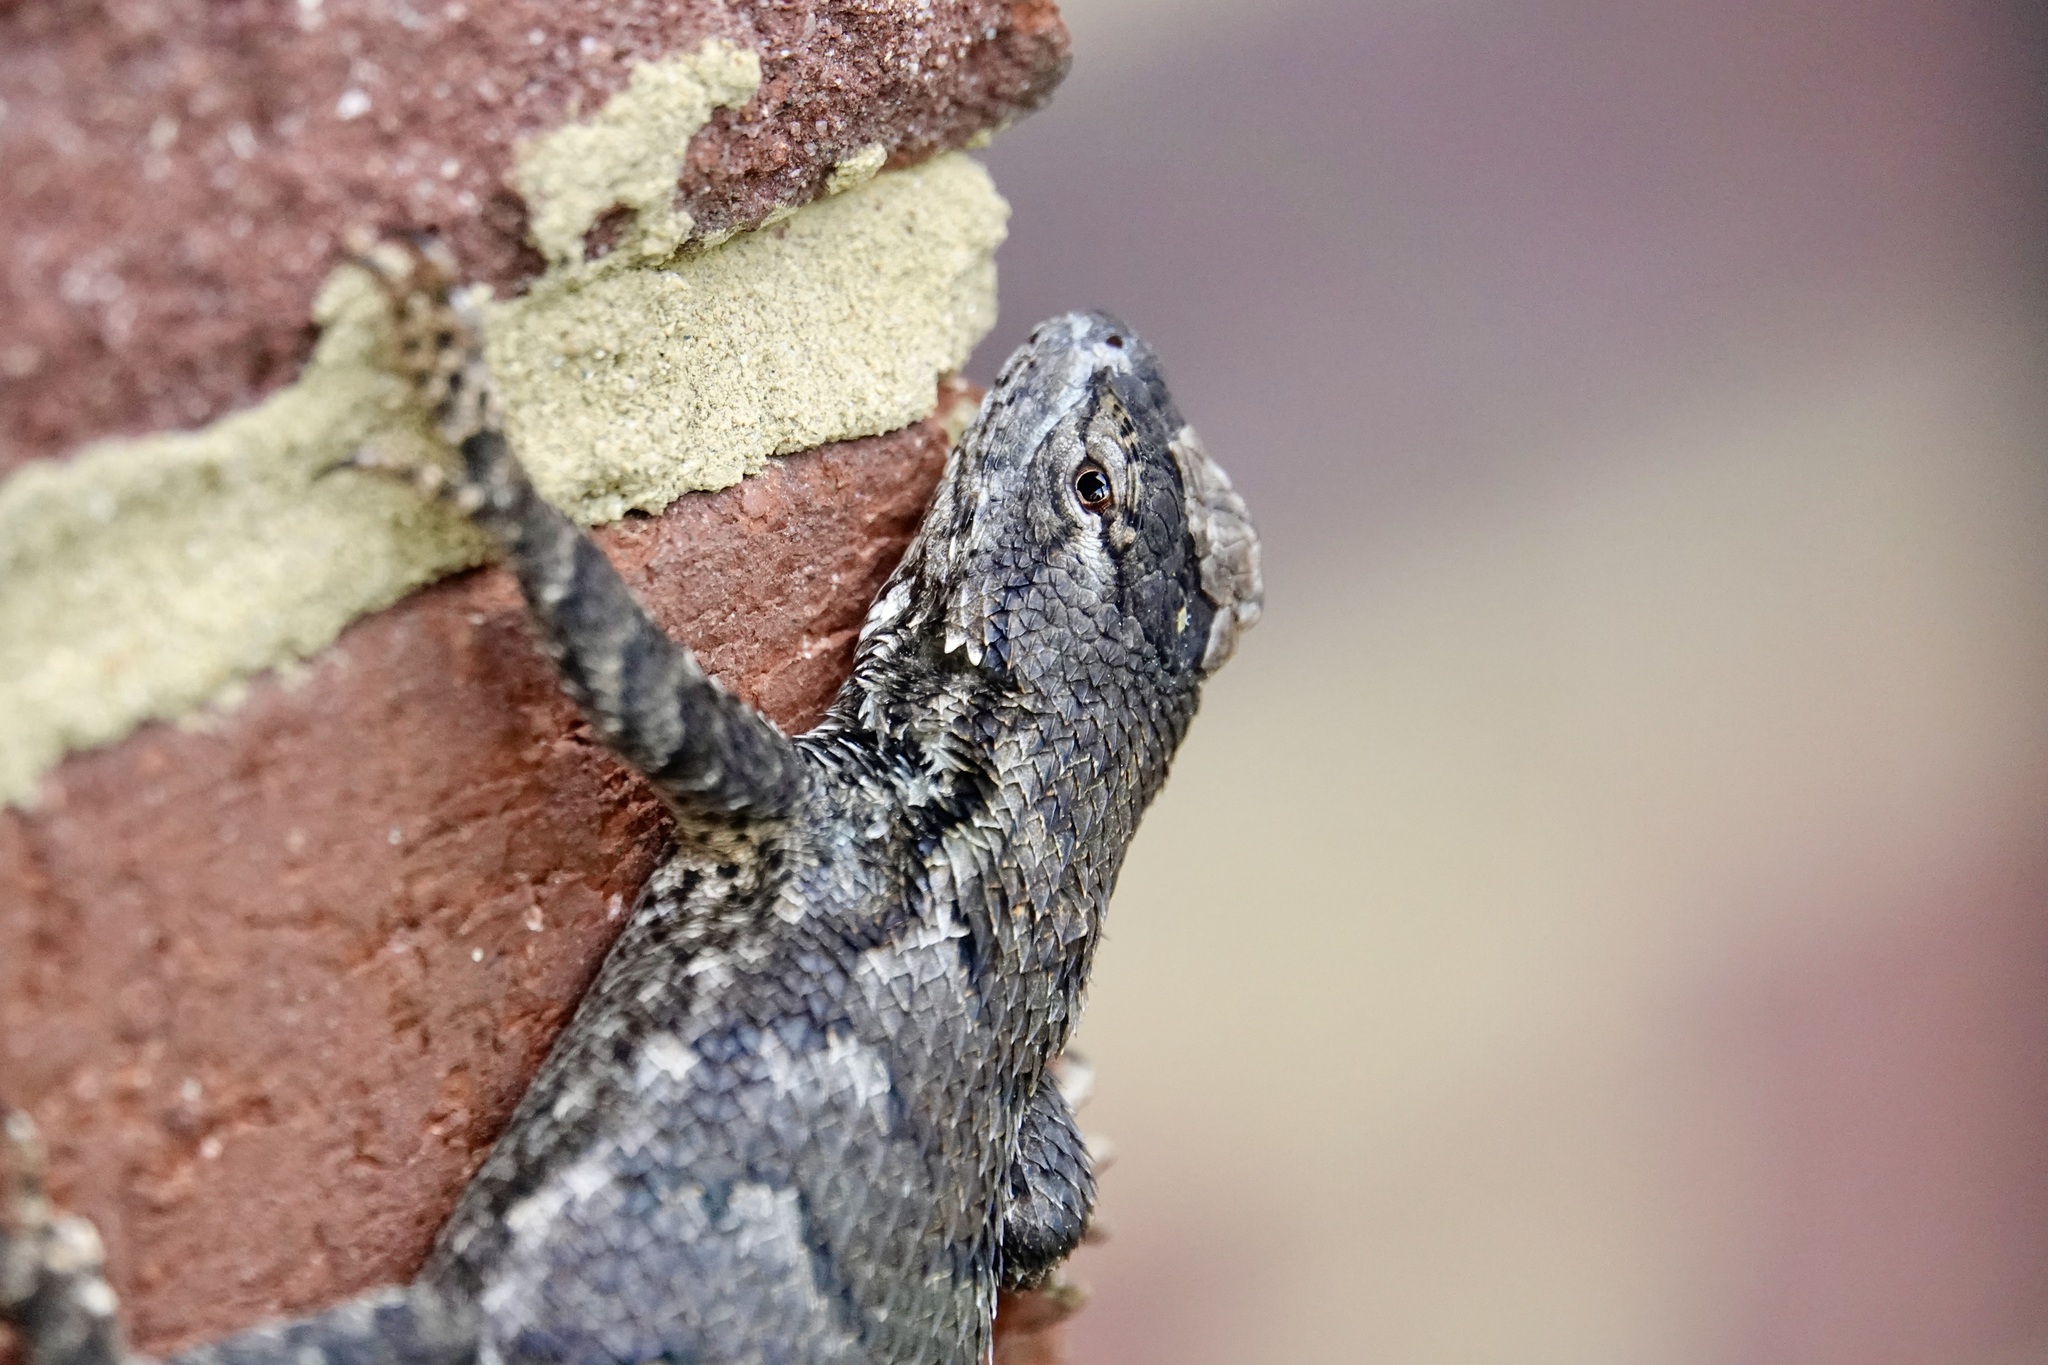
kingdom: Animalia
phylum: Chordata
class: Squamata
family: Phrynosomatidae
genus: Sceloporus
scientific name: Sceloporus undulatus
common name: Eastern fence lizard
